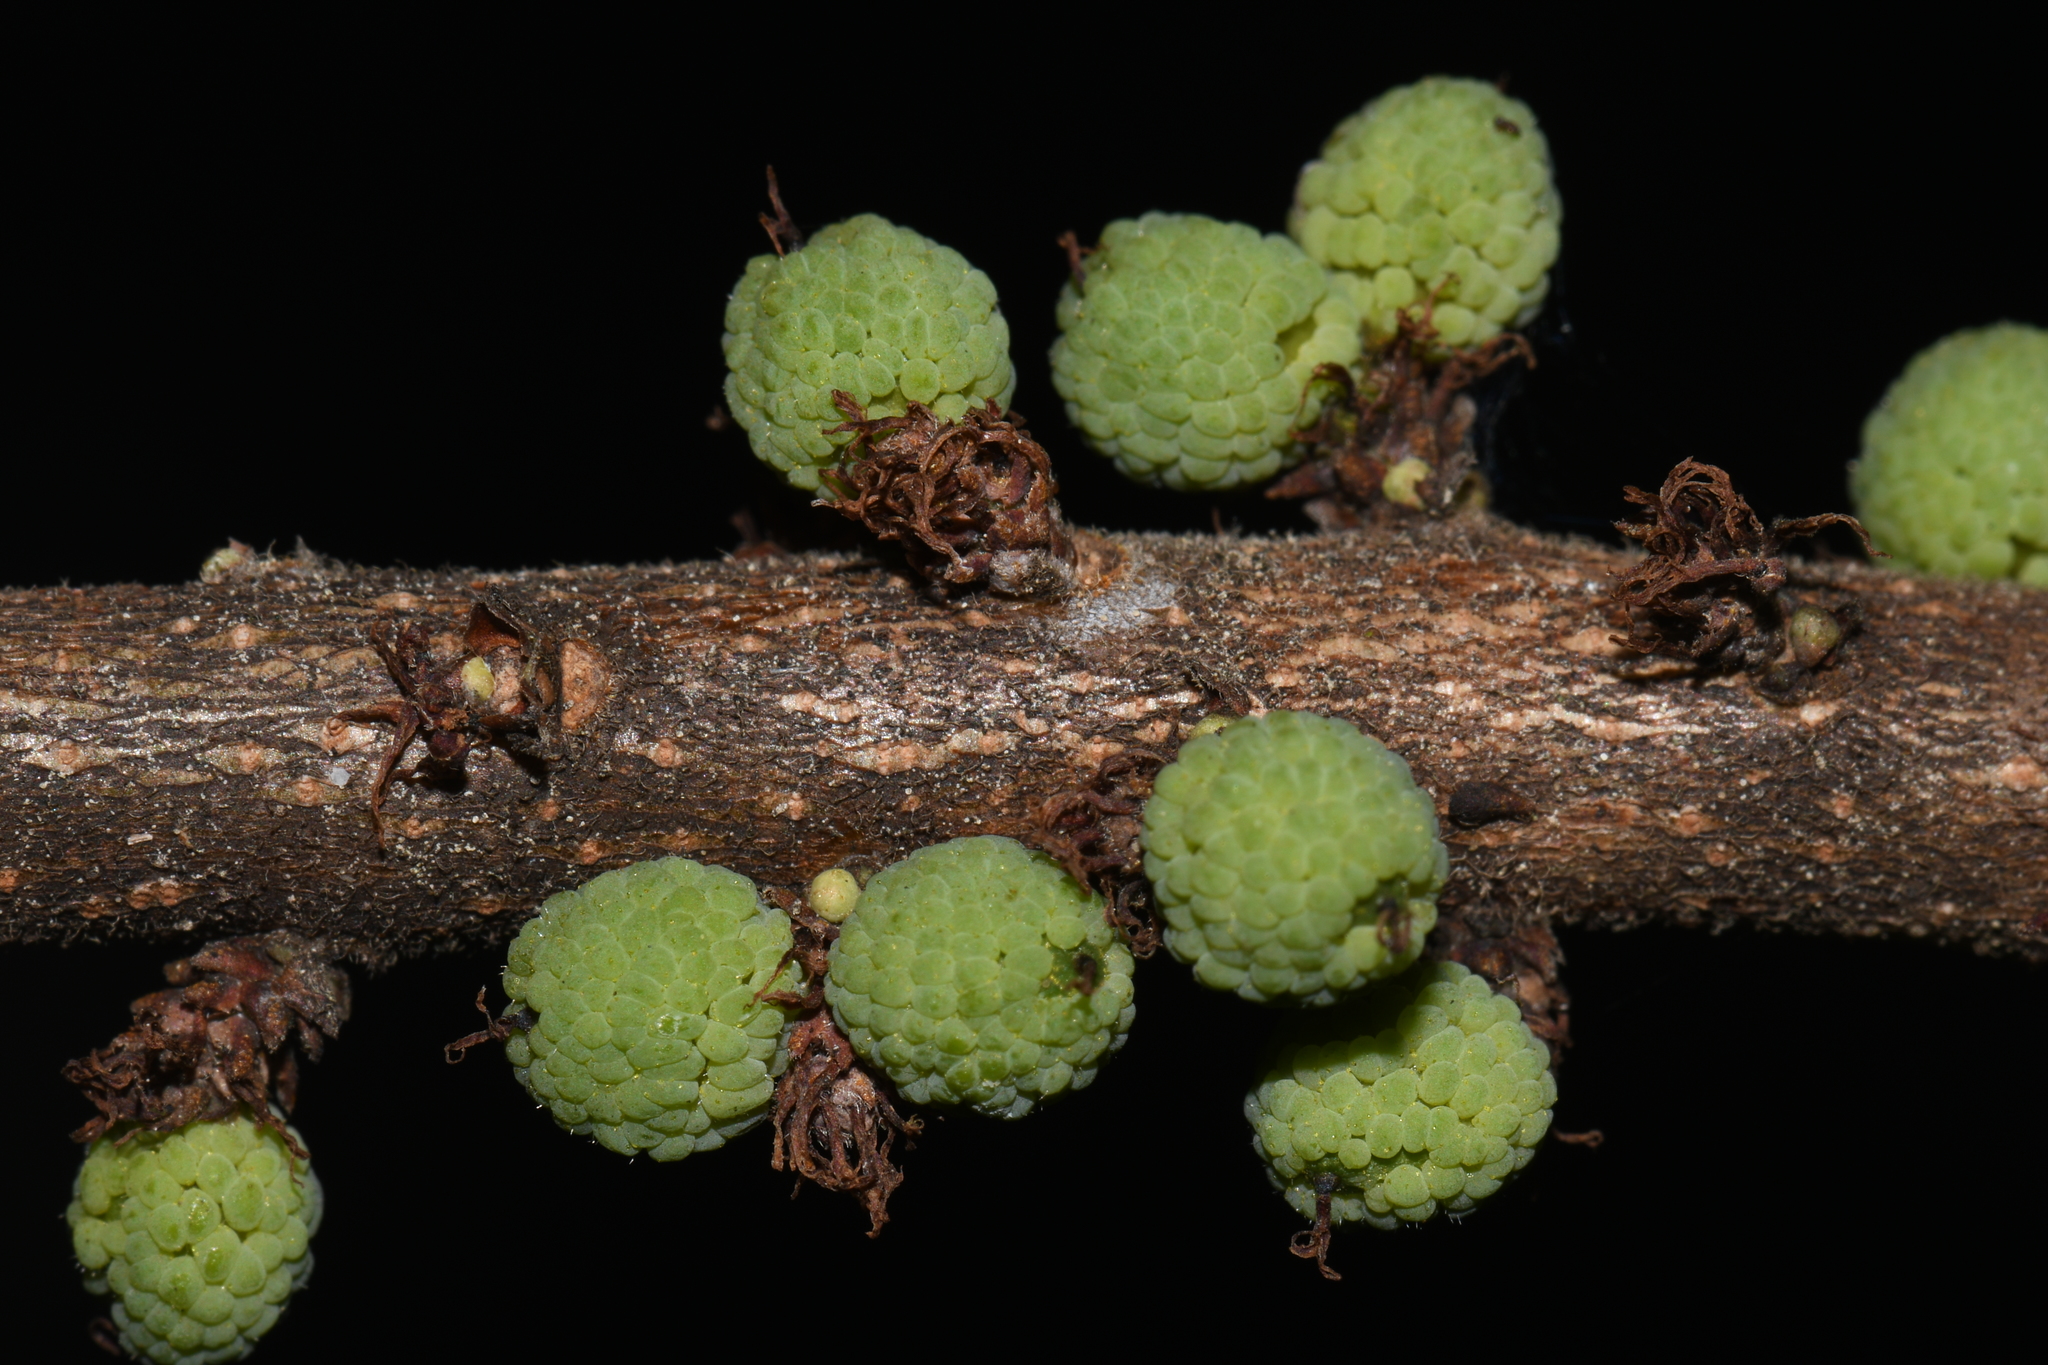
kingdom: Plantae
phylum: Tracheophyta
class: Magnoliopsida
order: Fagales
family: Myricaceae
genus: Morella
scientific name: Morella caroliniensis
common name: Evergreen bayberry
